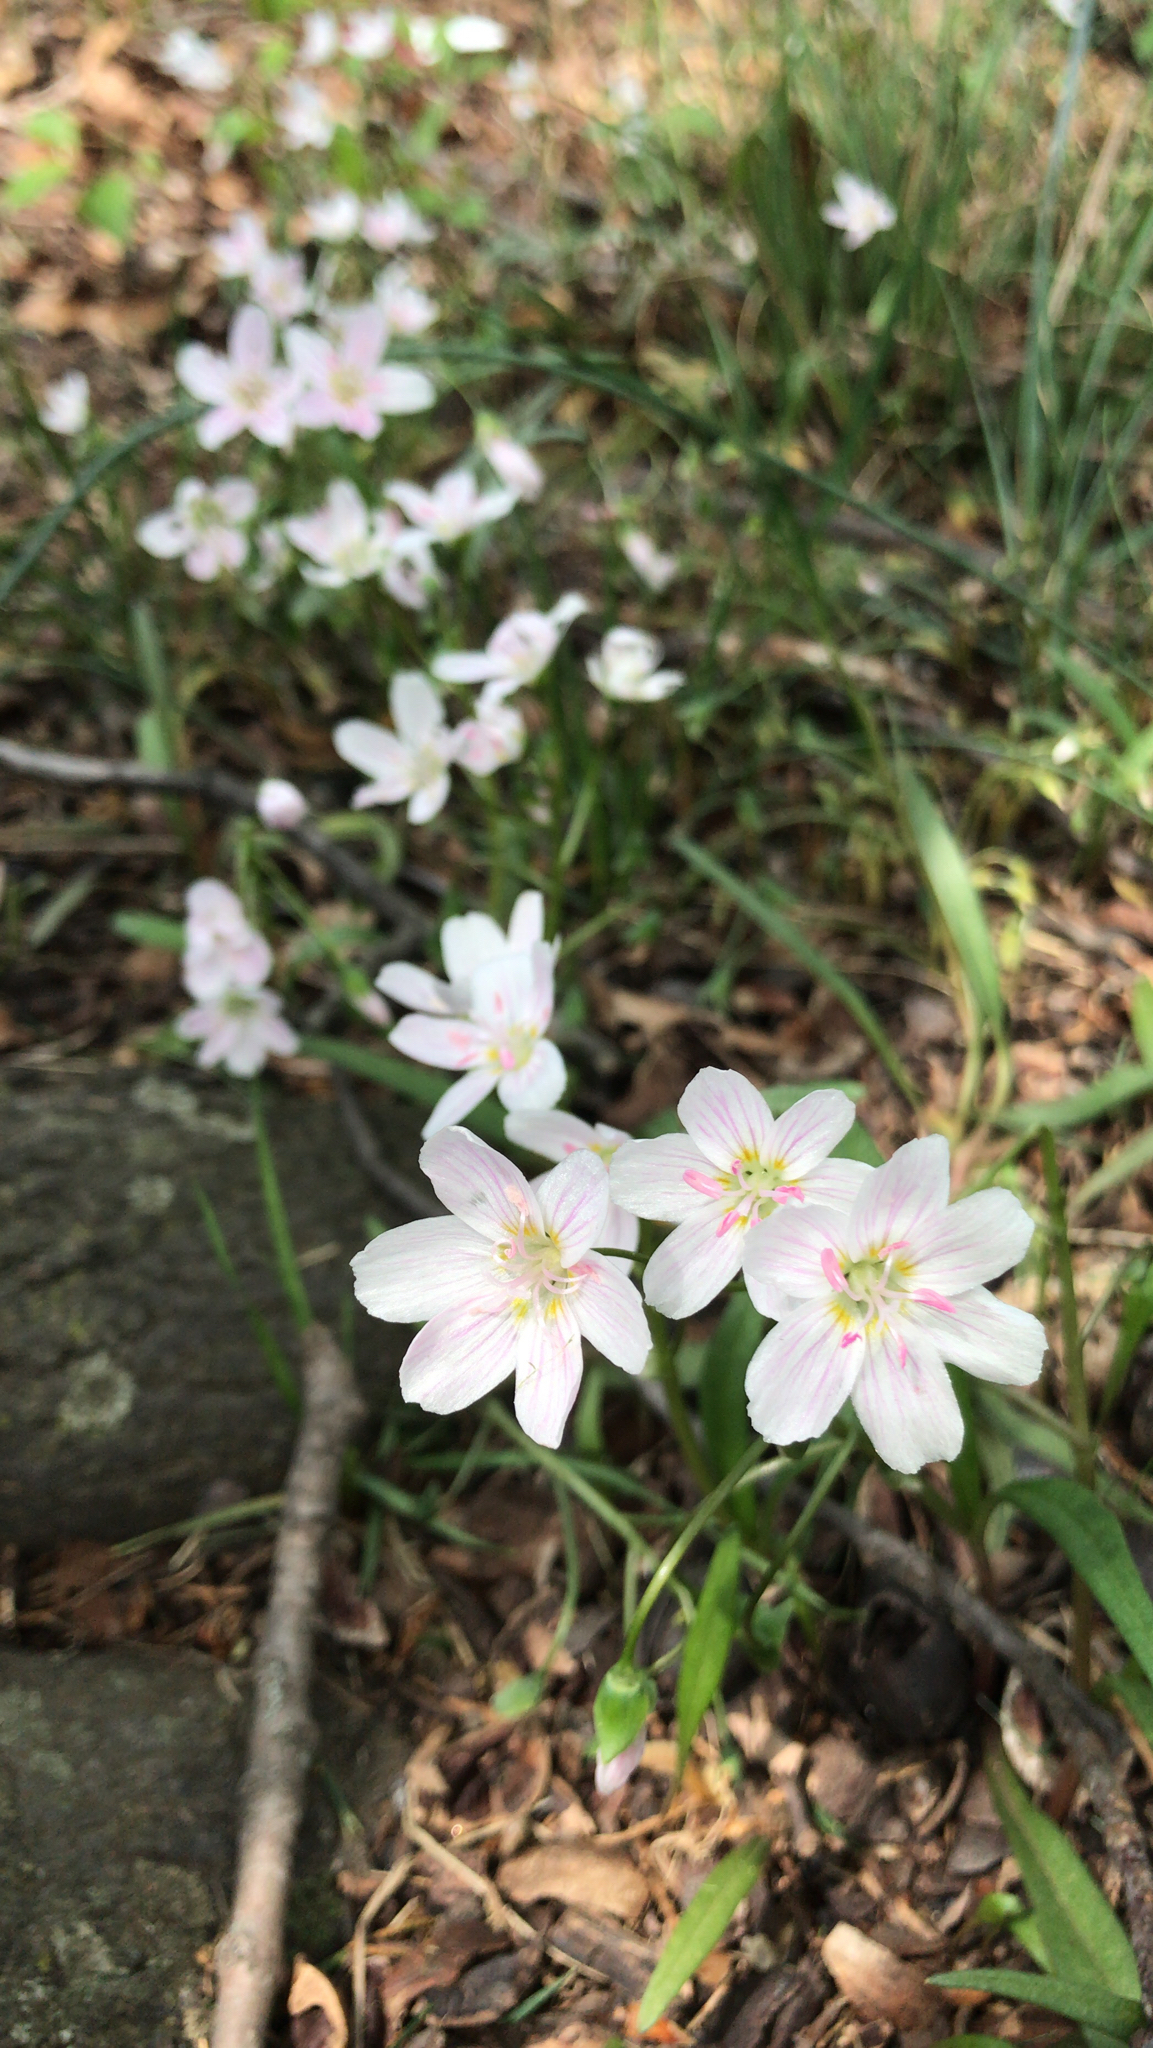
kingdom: Plantae
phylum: Tracheophyta
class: Magnoliopsida
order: Caryophyllales
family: Montiaceae
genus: Claytonia
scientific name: Claytonia virginica
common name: Virginia springbeauty
